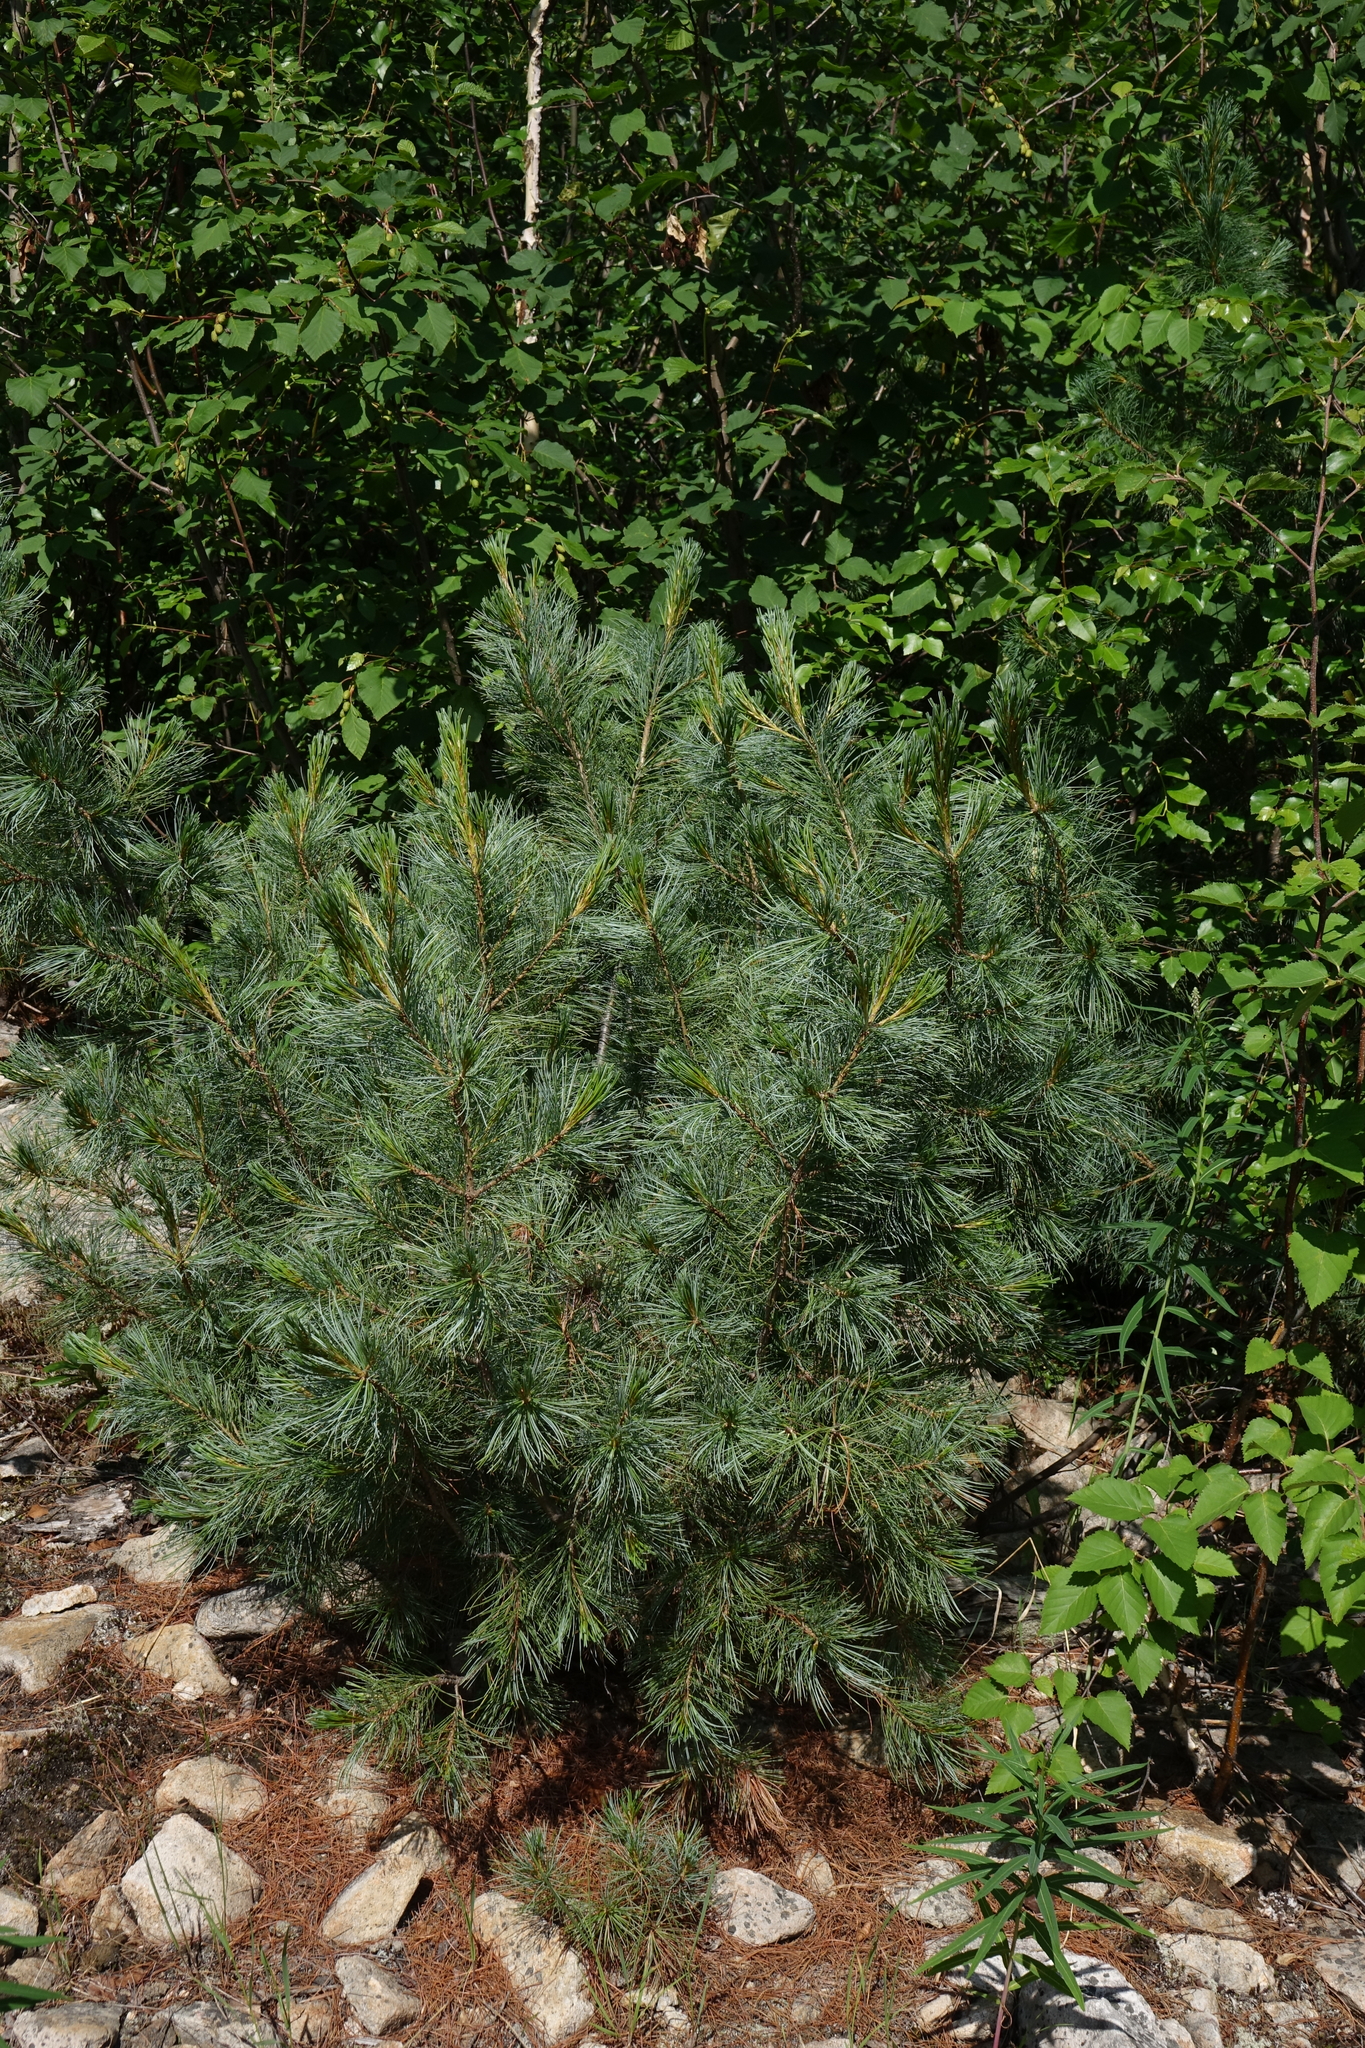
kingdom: Plantae
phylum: Tracheophyta
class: Pinopsida
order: Pinales
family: Pinaceae
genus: Pinus
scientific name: Pinus pumila
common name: Dwarf siberian pine
